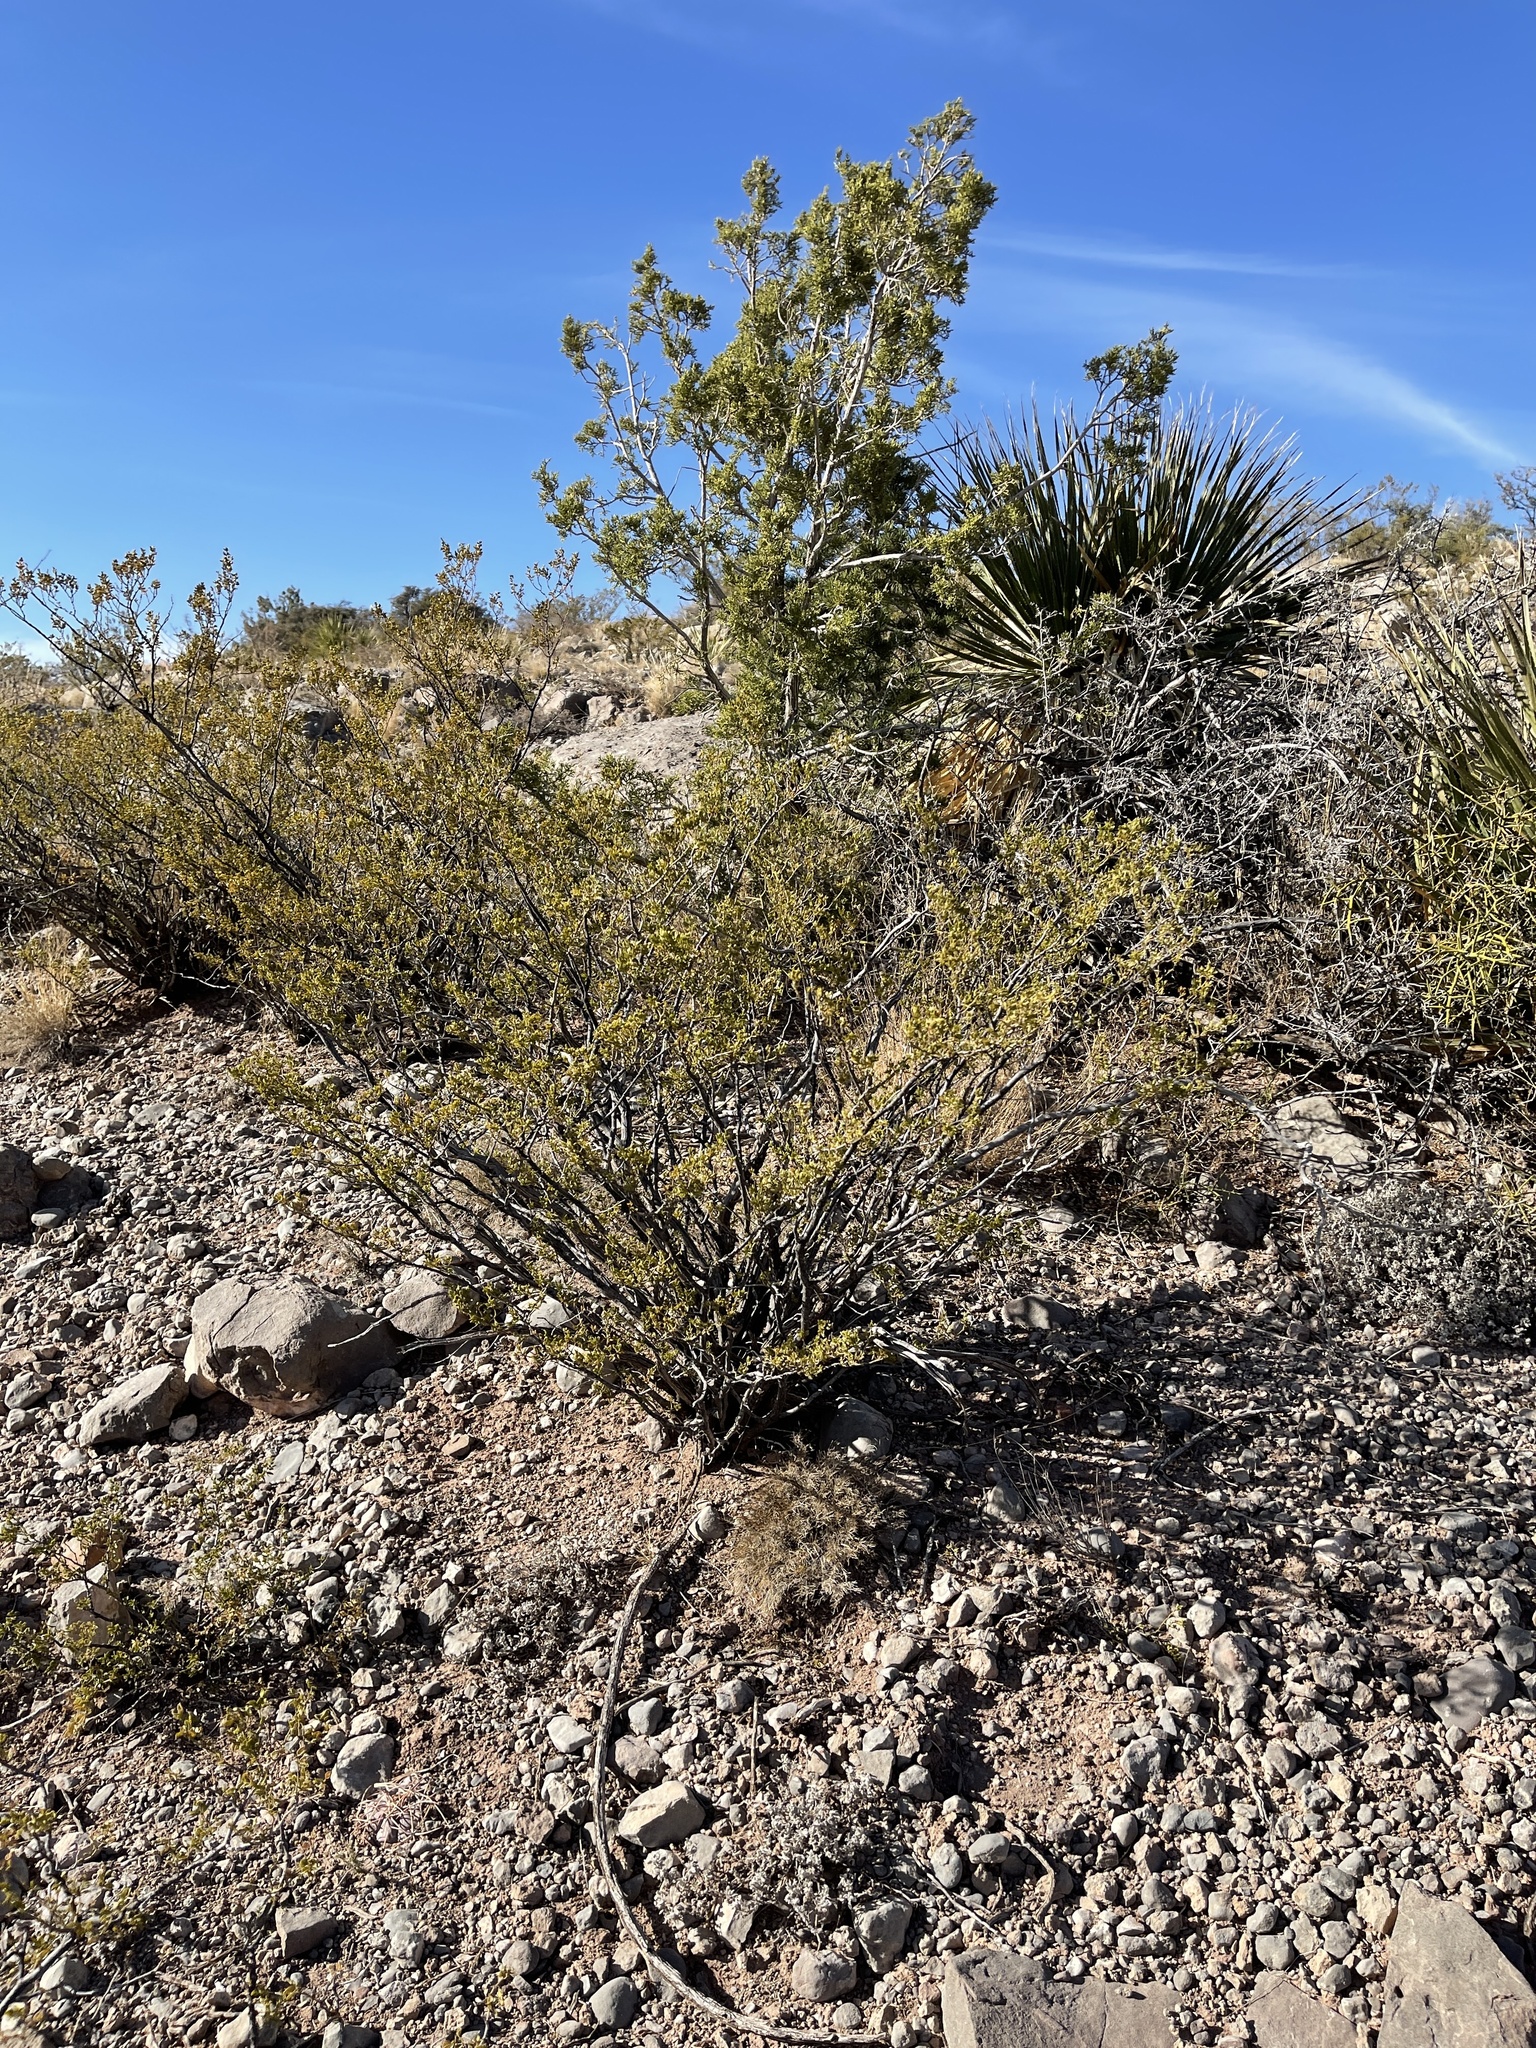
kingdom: Plantae
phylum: Tracheophyta
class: Magnoliopsida
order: Zygophyllales
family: Zygophyllaceae
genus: Larrea
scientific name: Larrea tridentata
